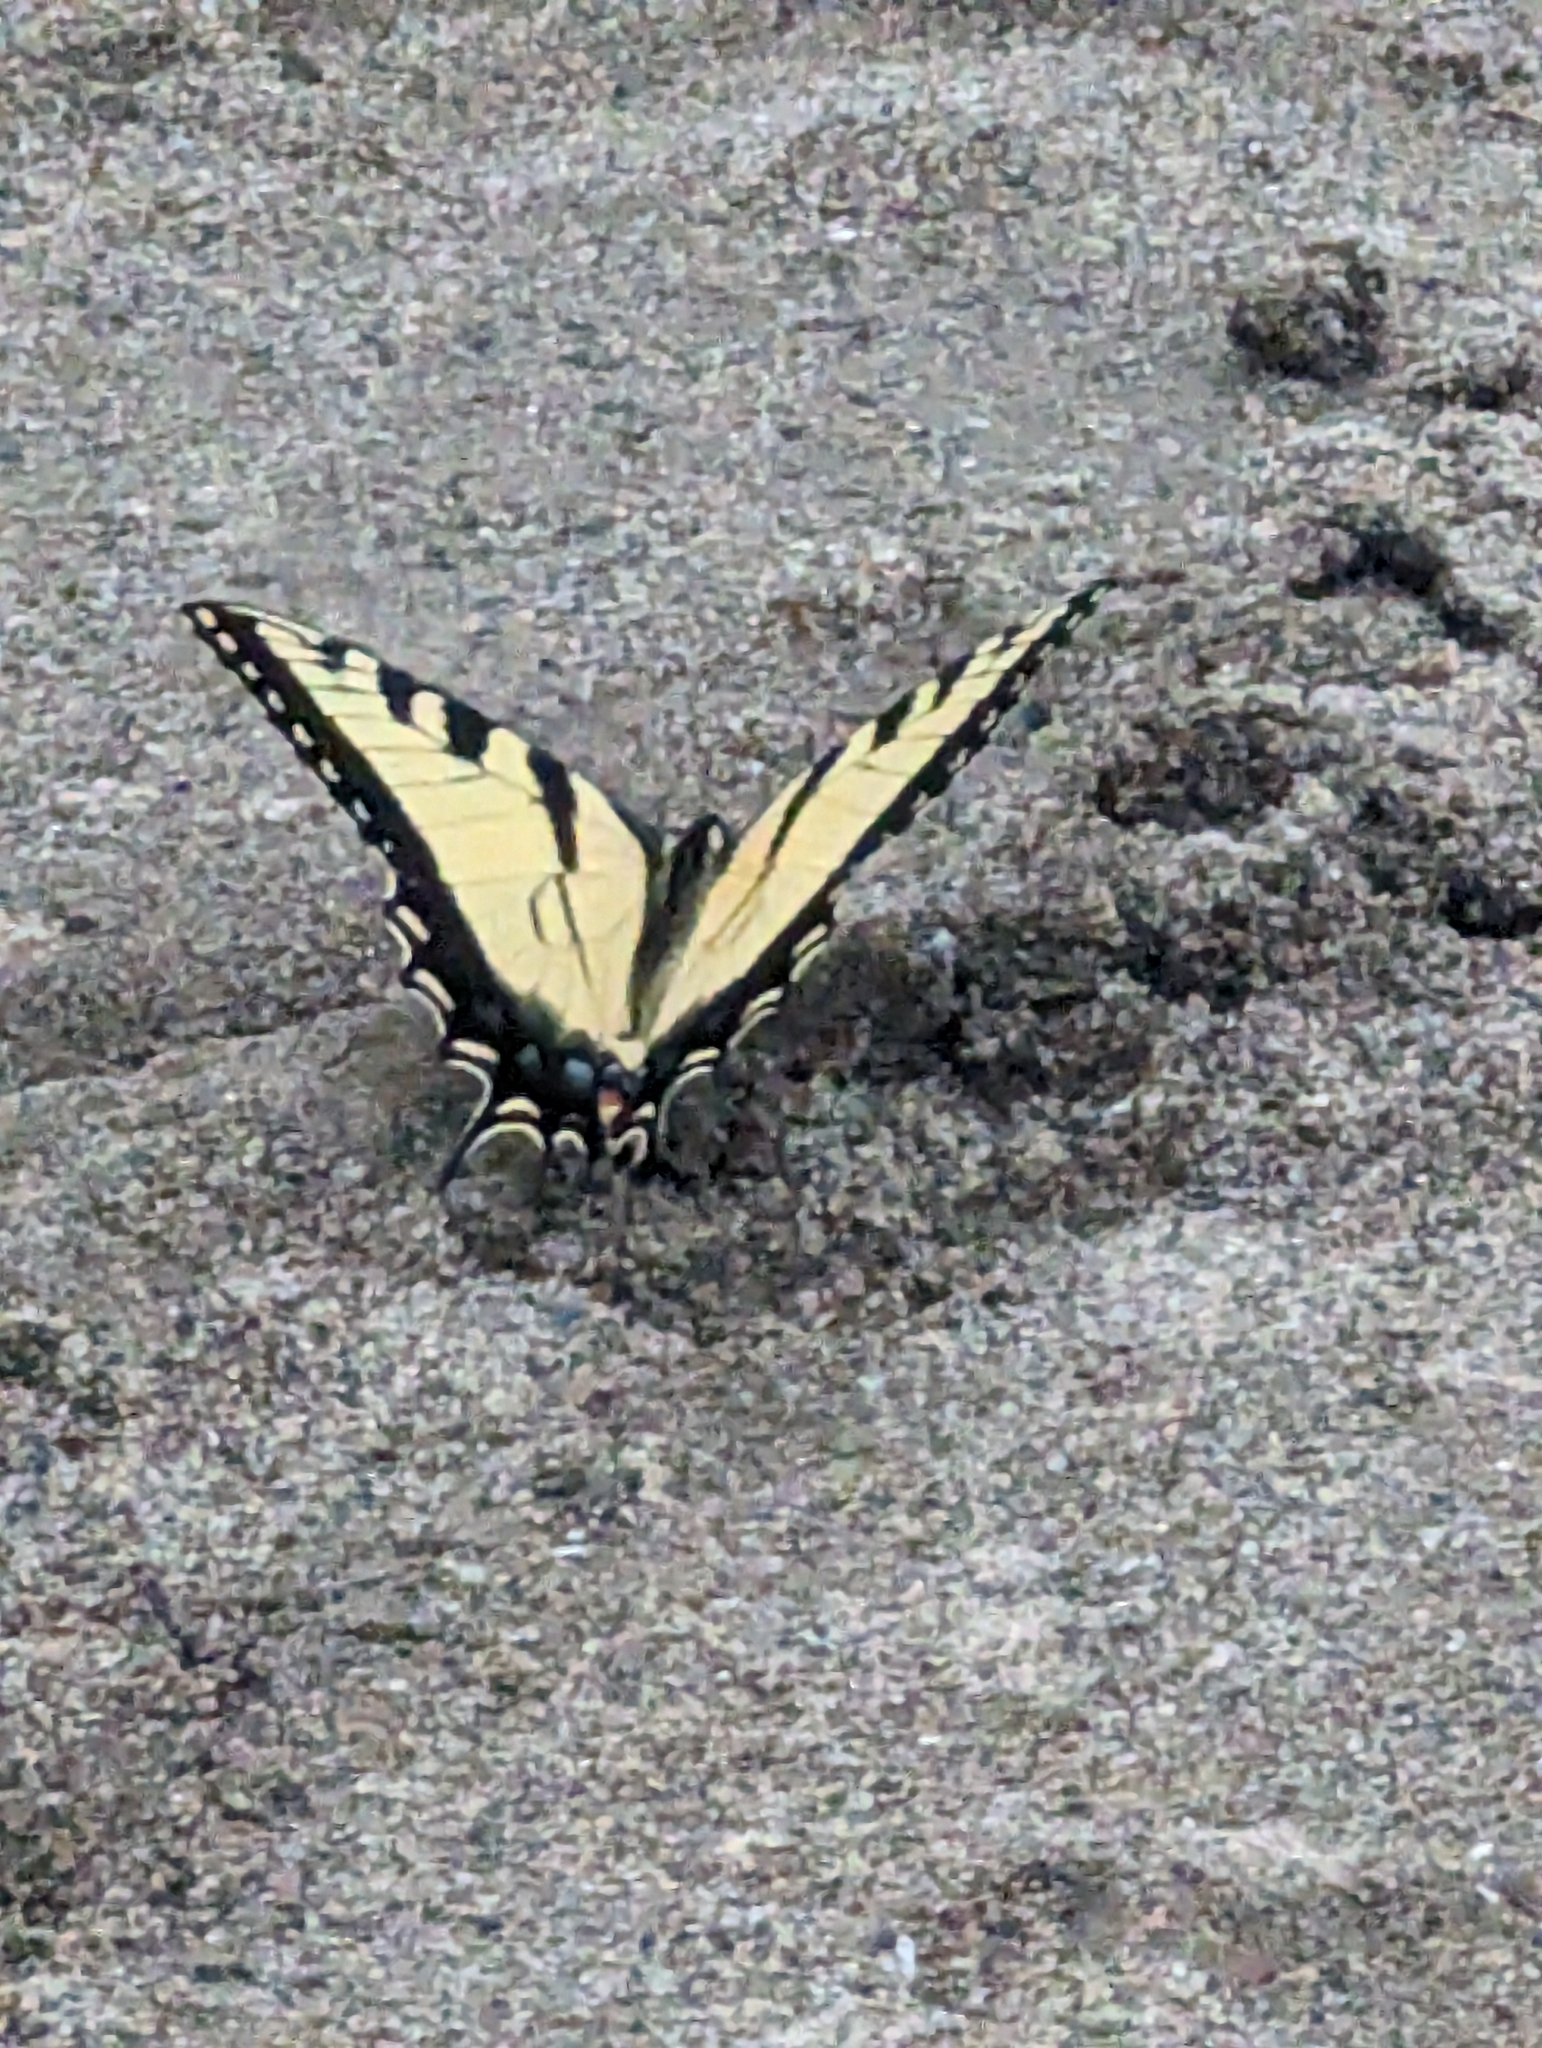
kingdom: Animalia
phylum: Arthropoda
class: Insecta
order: Lepidoptera
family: Papilionidae
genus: Papilio
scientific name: Papilio glaucus
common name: Tiger swallowtail
